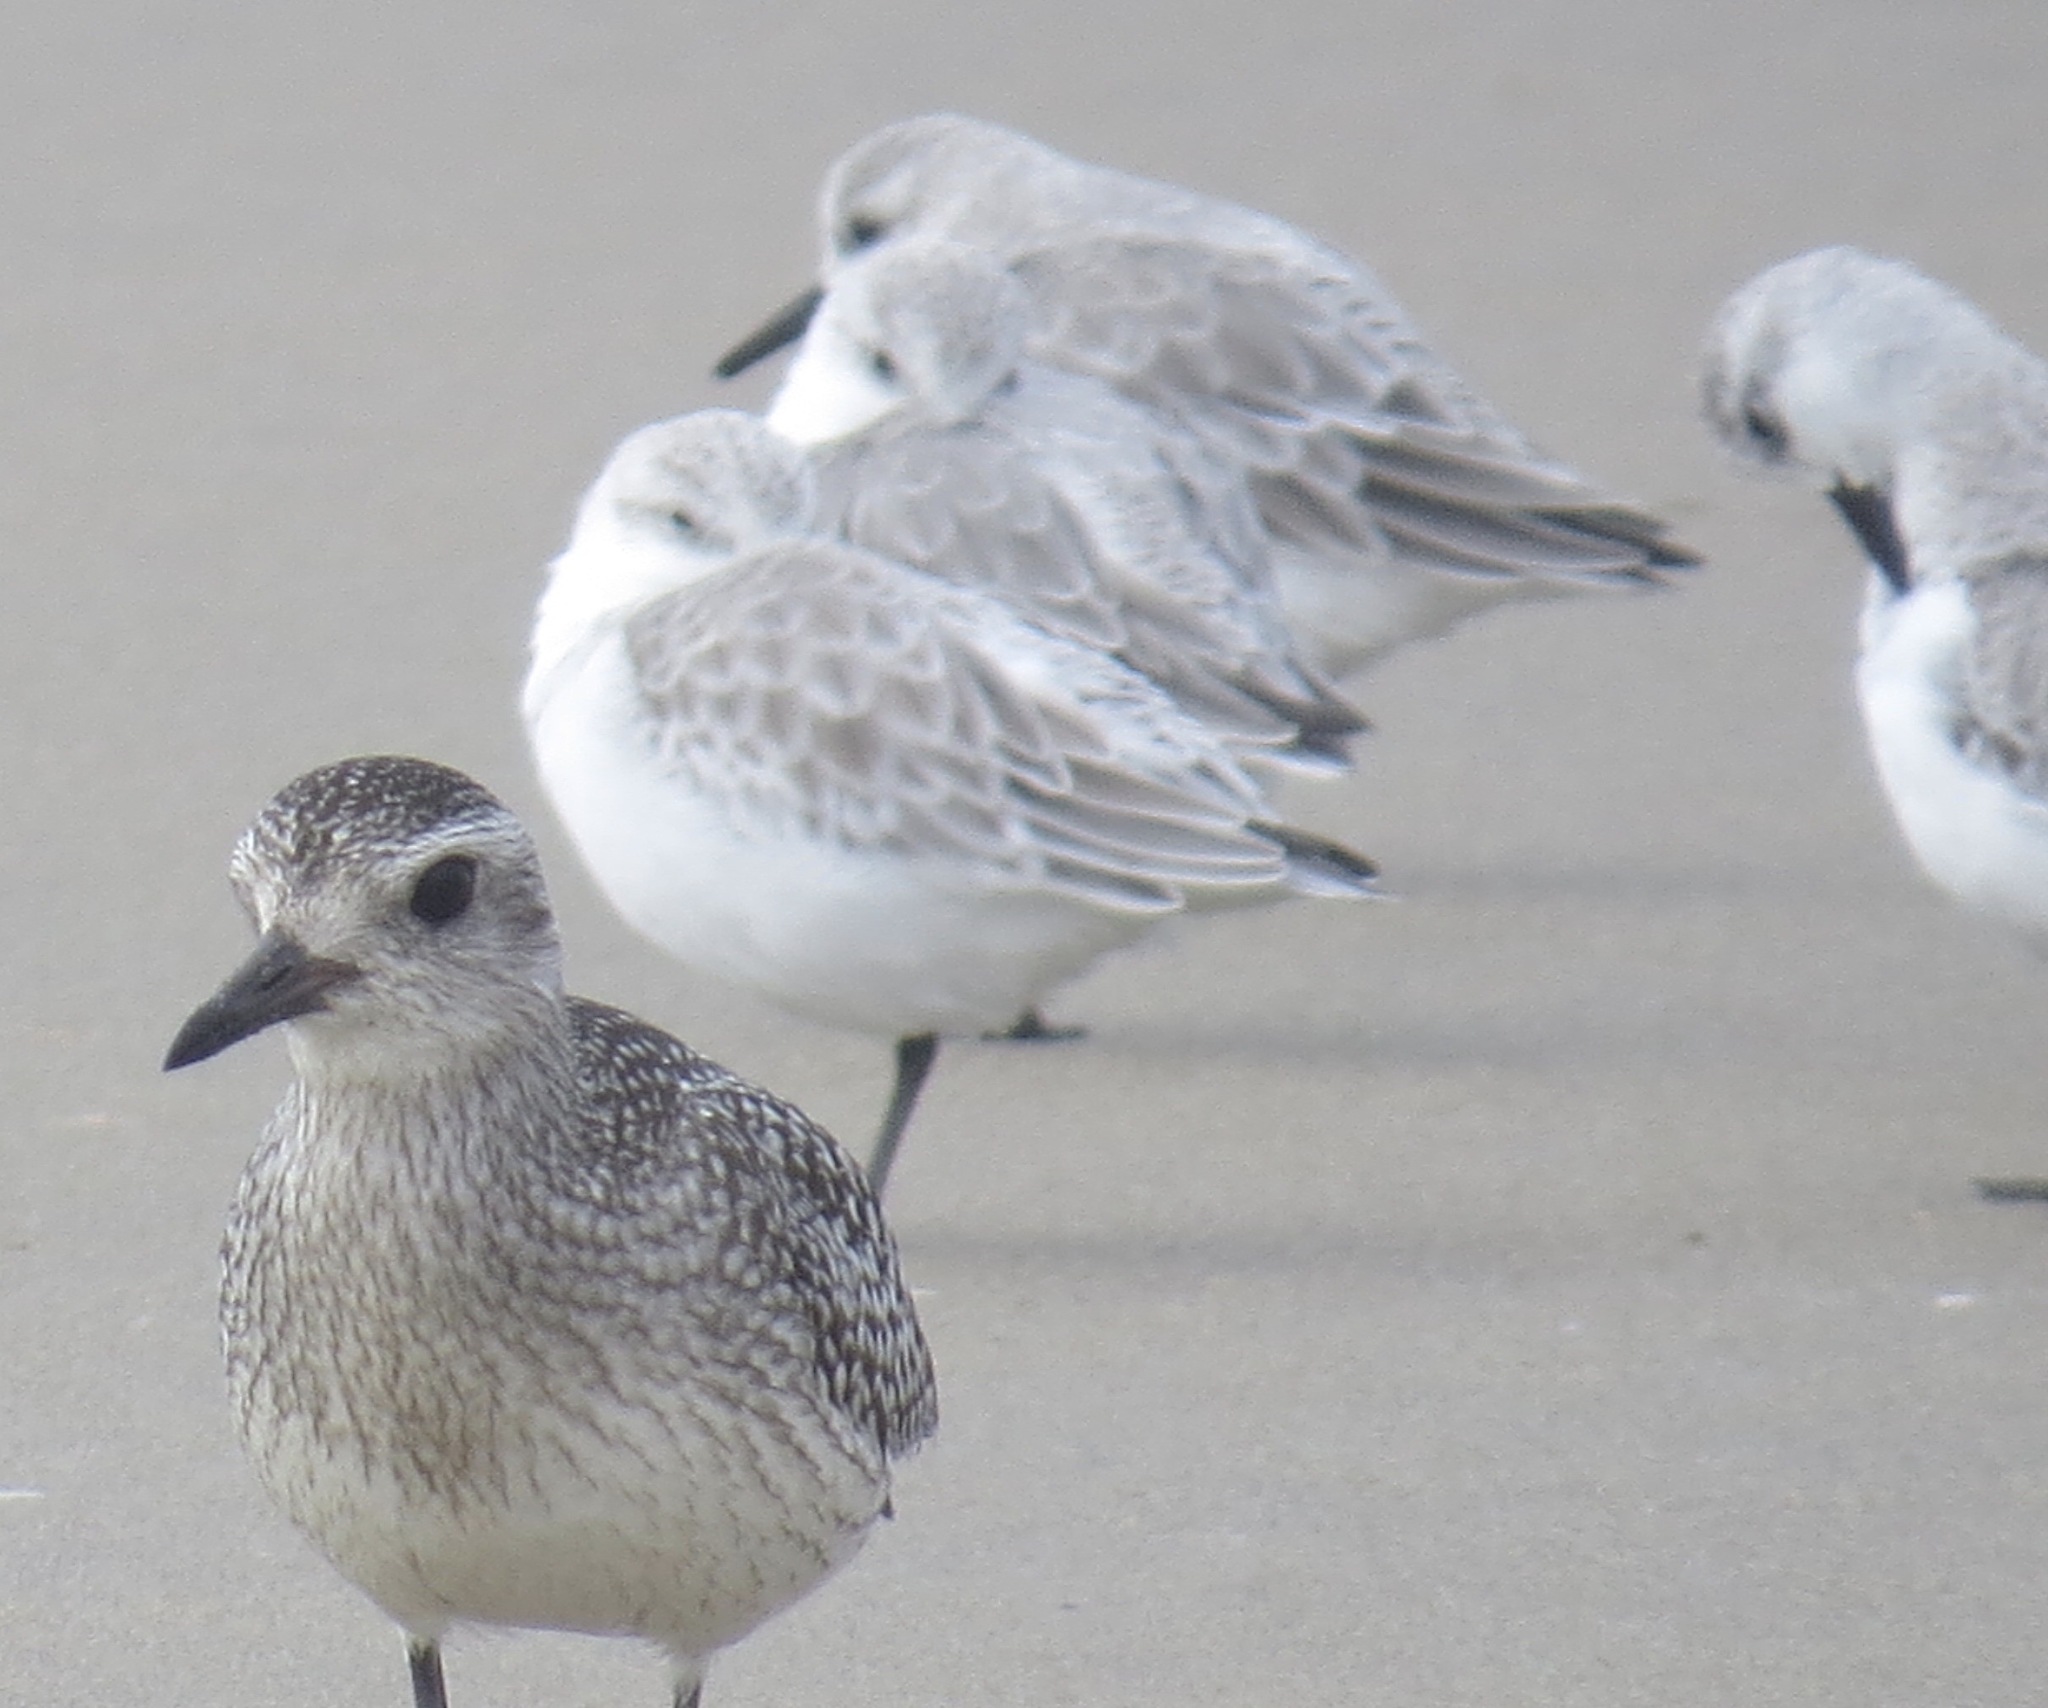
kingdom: Animalia
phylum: Chordata
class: Aves
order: Charadriiformes
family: Scolopacidae
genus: Calidris
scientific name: Calidris alba
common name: Sanderling
